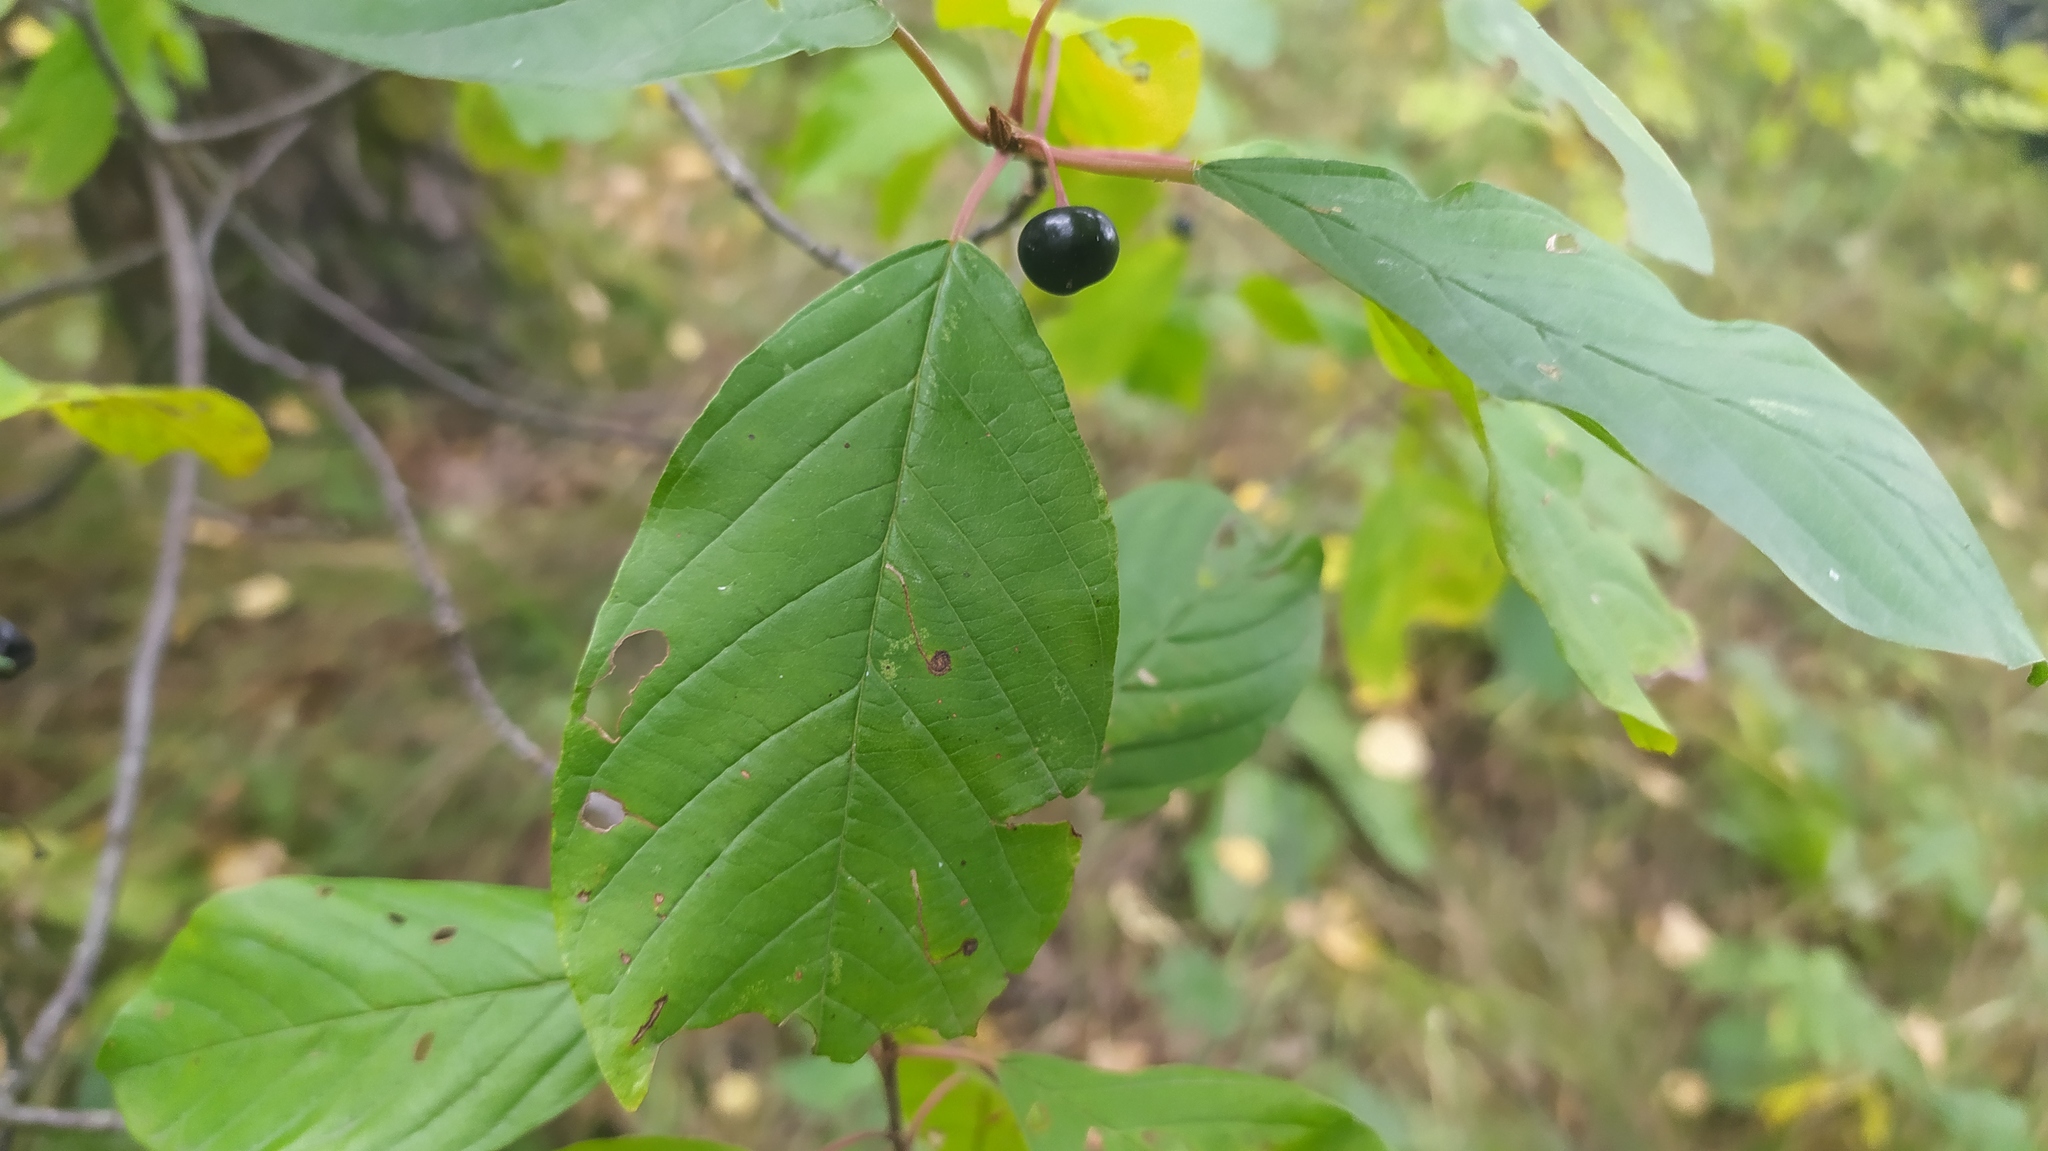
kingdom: Plantae
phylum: Tracheophyta
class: Magnoliopsida
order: Rosales
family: Rhamnaceae
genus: Frangula
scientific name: Frangula alnus
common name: Alder buckthorn
